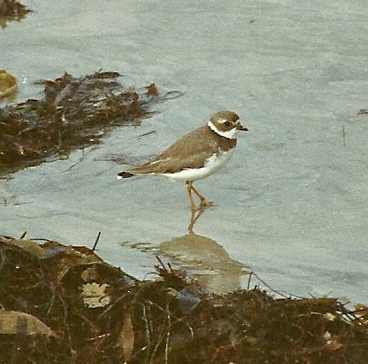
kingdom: Animalia
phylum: Chordata
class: Aves
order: Charadriiformes
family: Charadriidae
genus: Charadrius
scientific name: Charadrius semipalmatus
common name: Semipalmated plover
